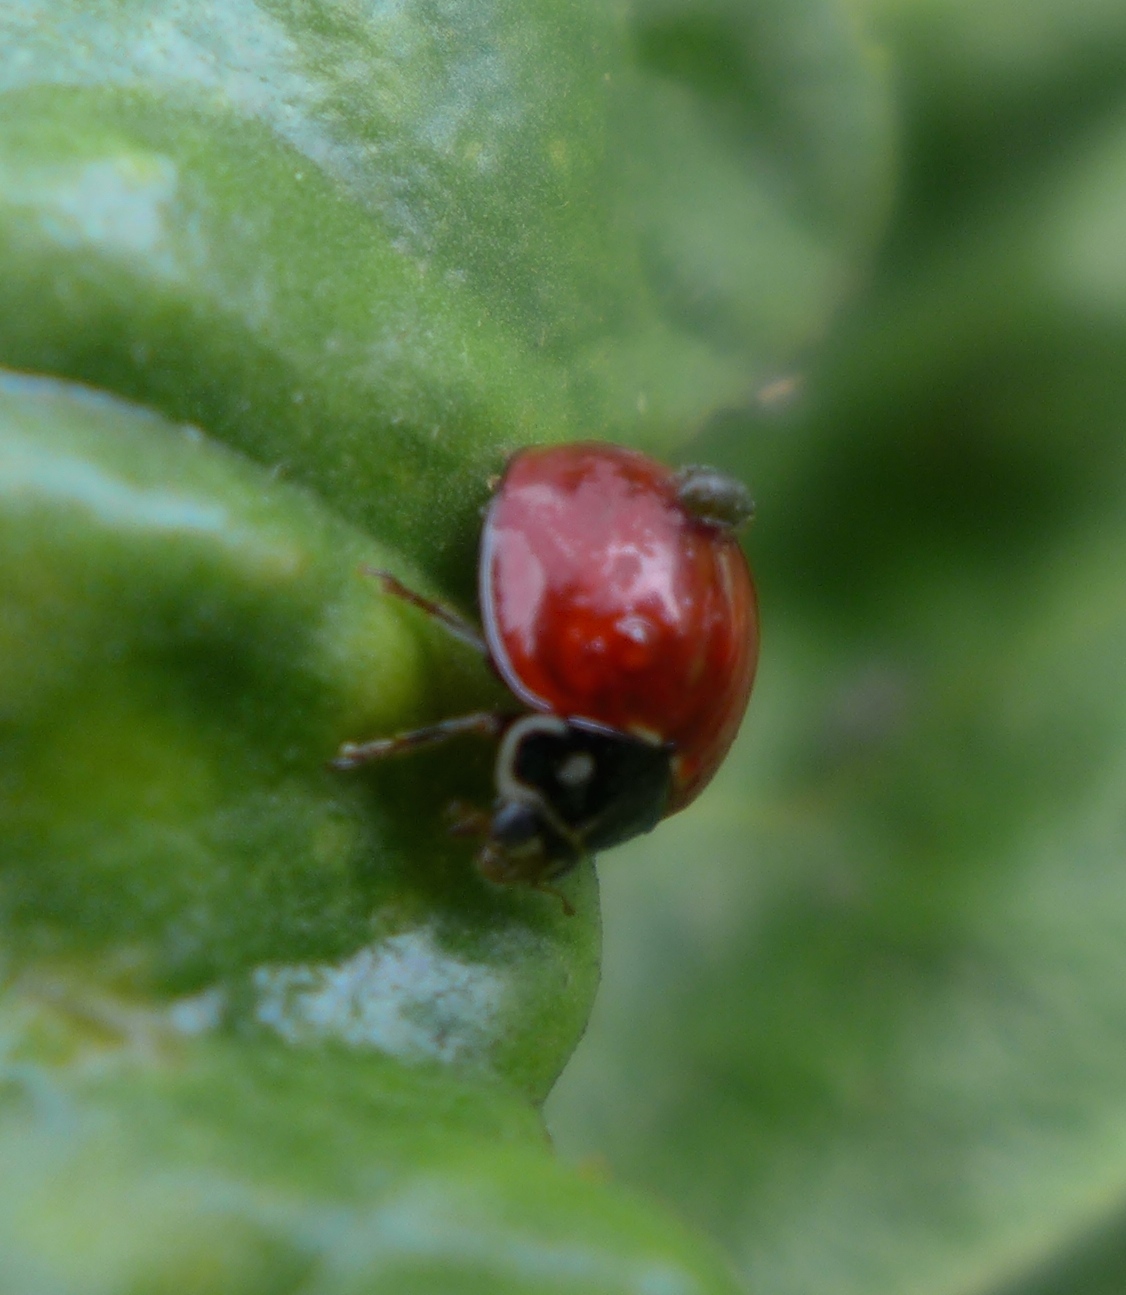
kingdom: Animalia
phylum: Arthropoda
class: Insecta
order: Coleoptera
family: Coccinellidae
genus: Cycloneda
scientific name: Cycloneda sanguinea
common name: Ladybird beetle
